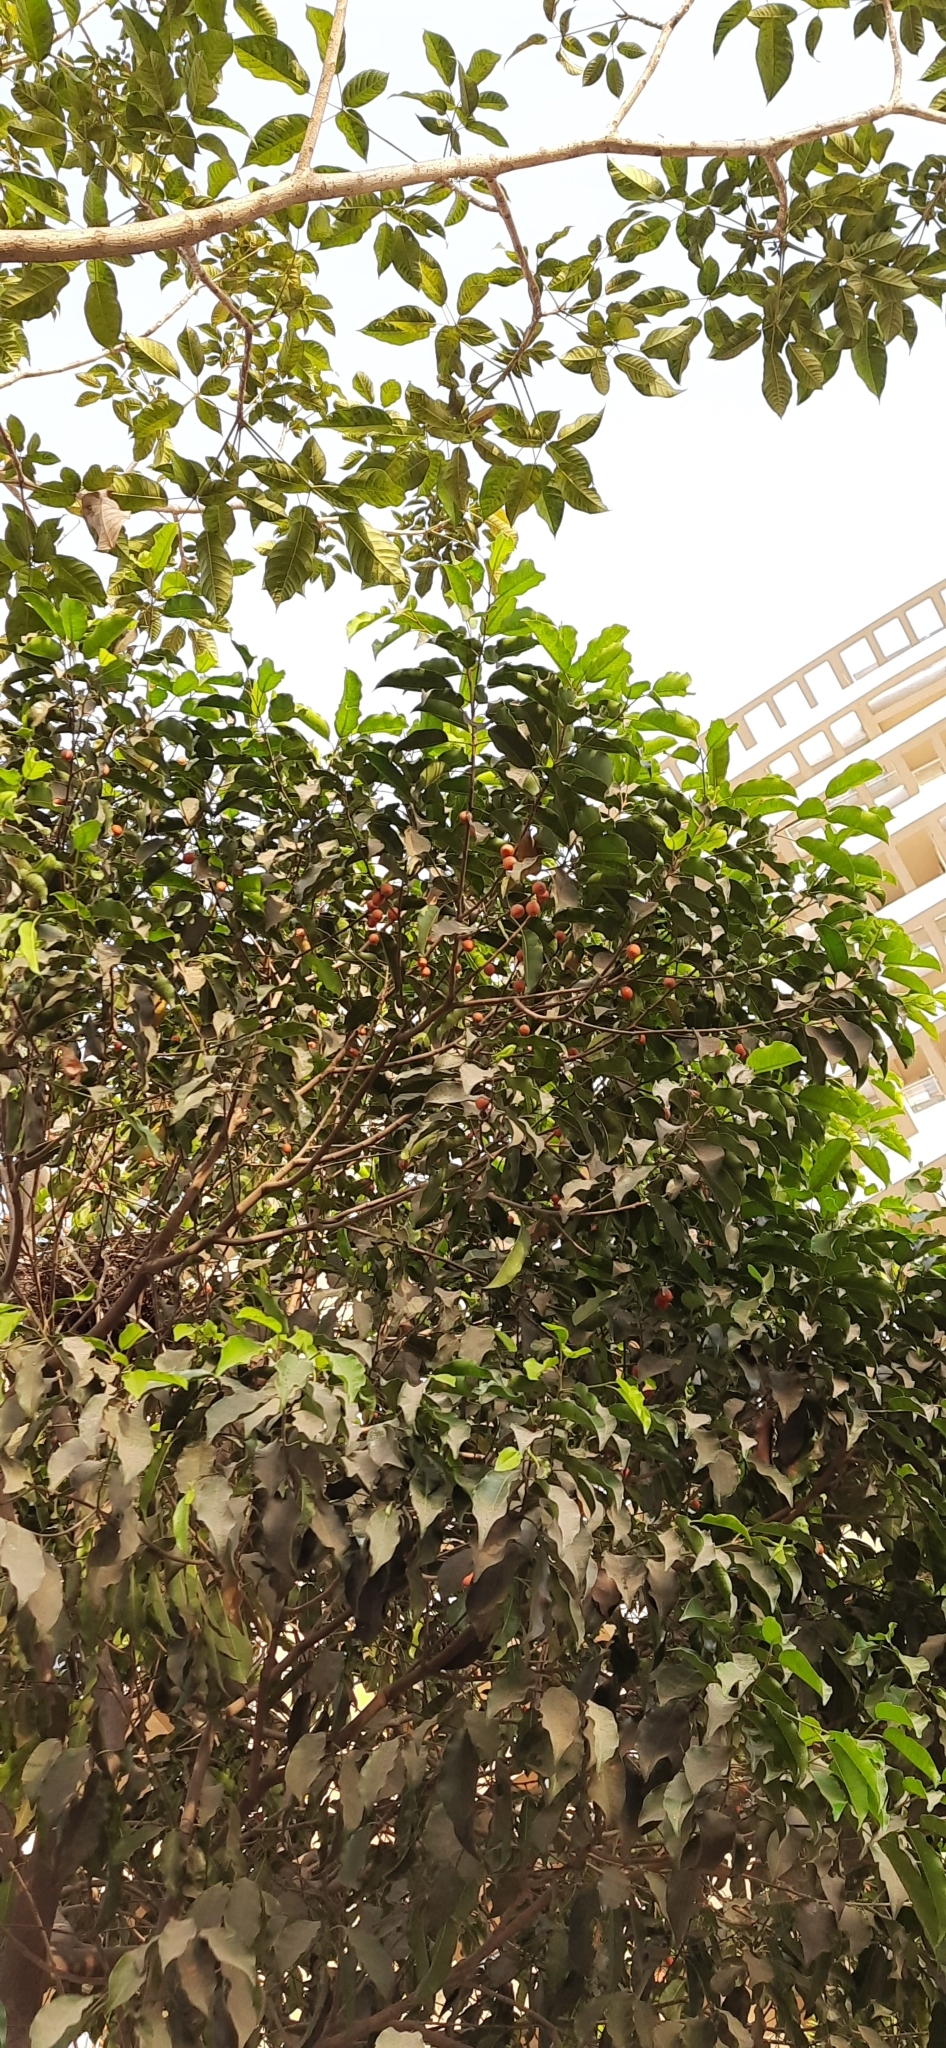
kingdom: Plantae
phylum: Tracheophyta
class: Magnoliopsida
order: Ericales
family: Sapotaceae
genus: Mimusops
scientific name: Mimusops elengi
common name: Spanish cherry
